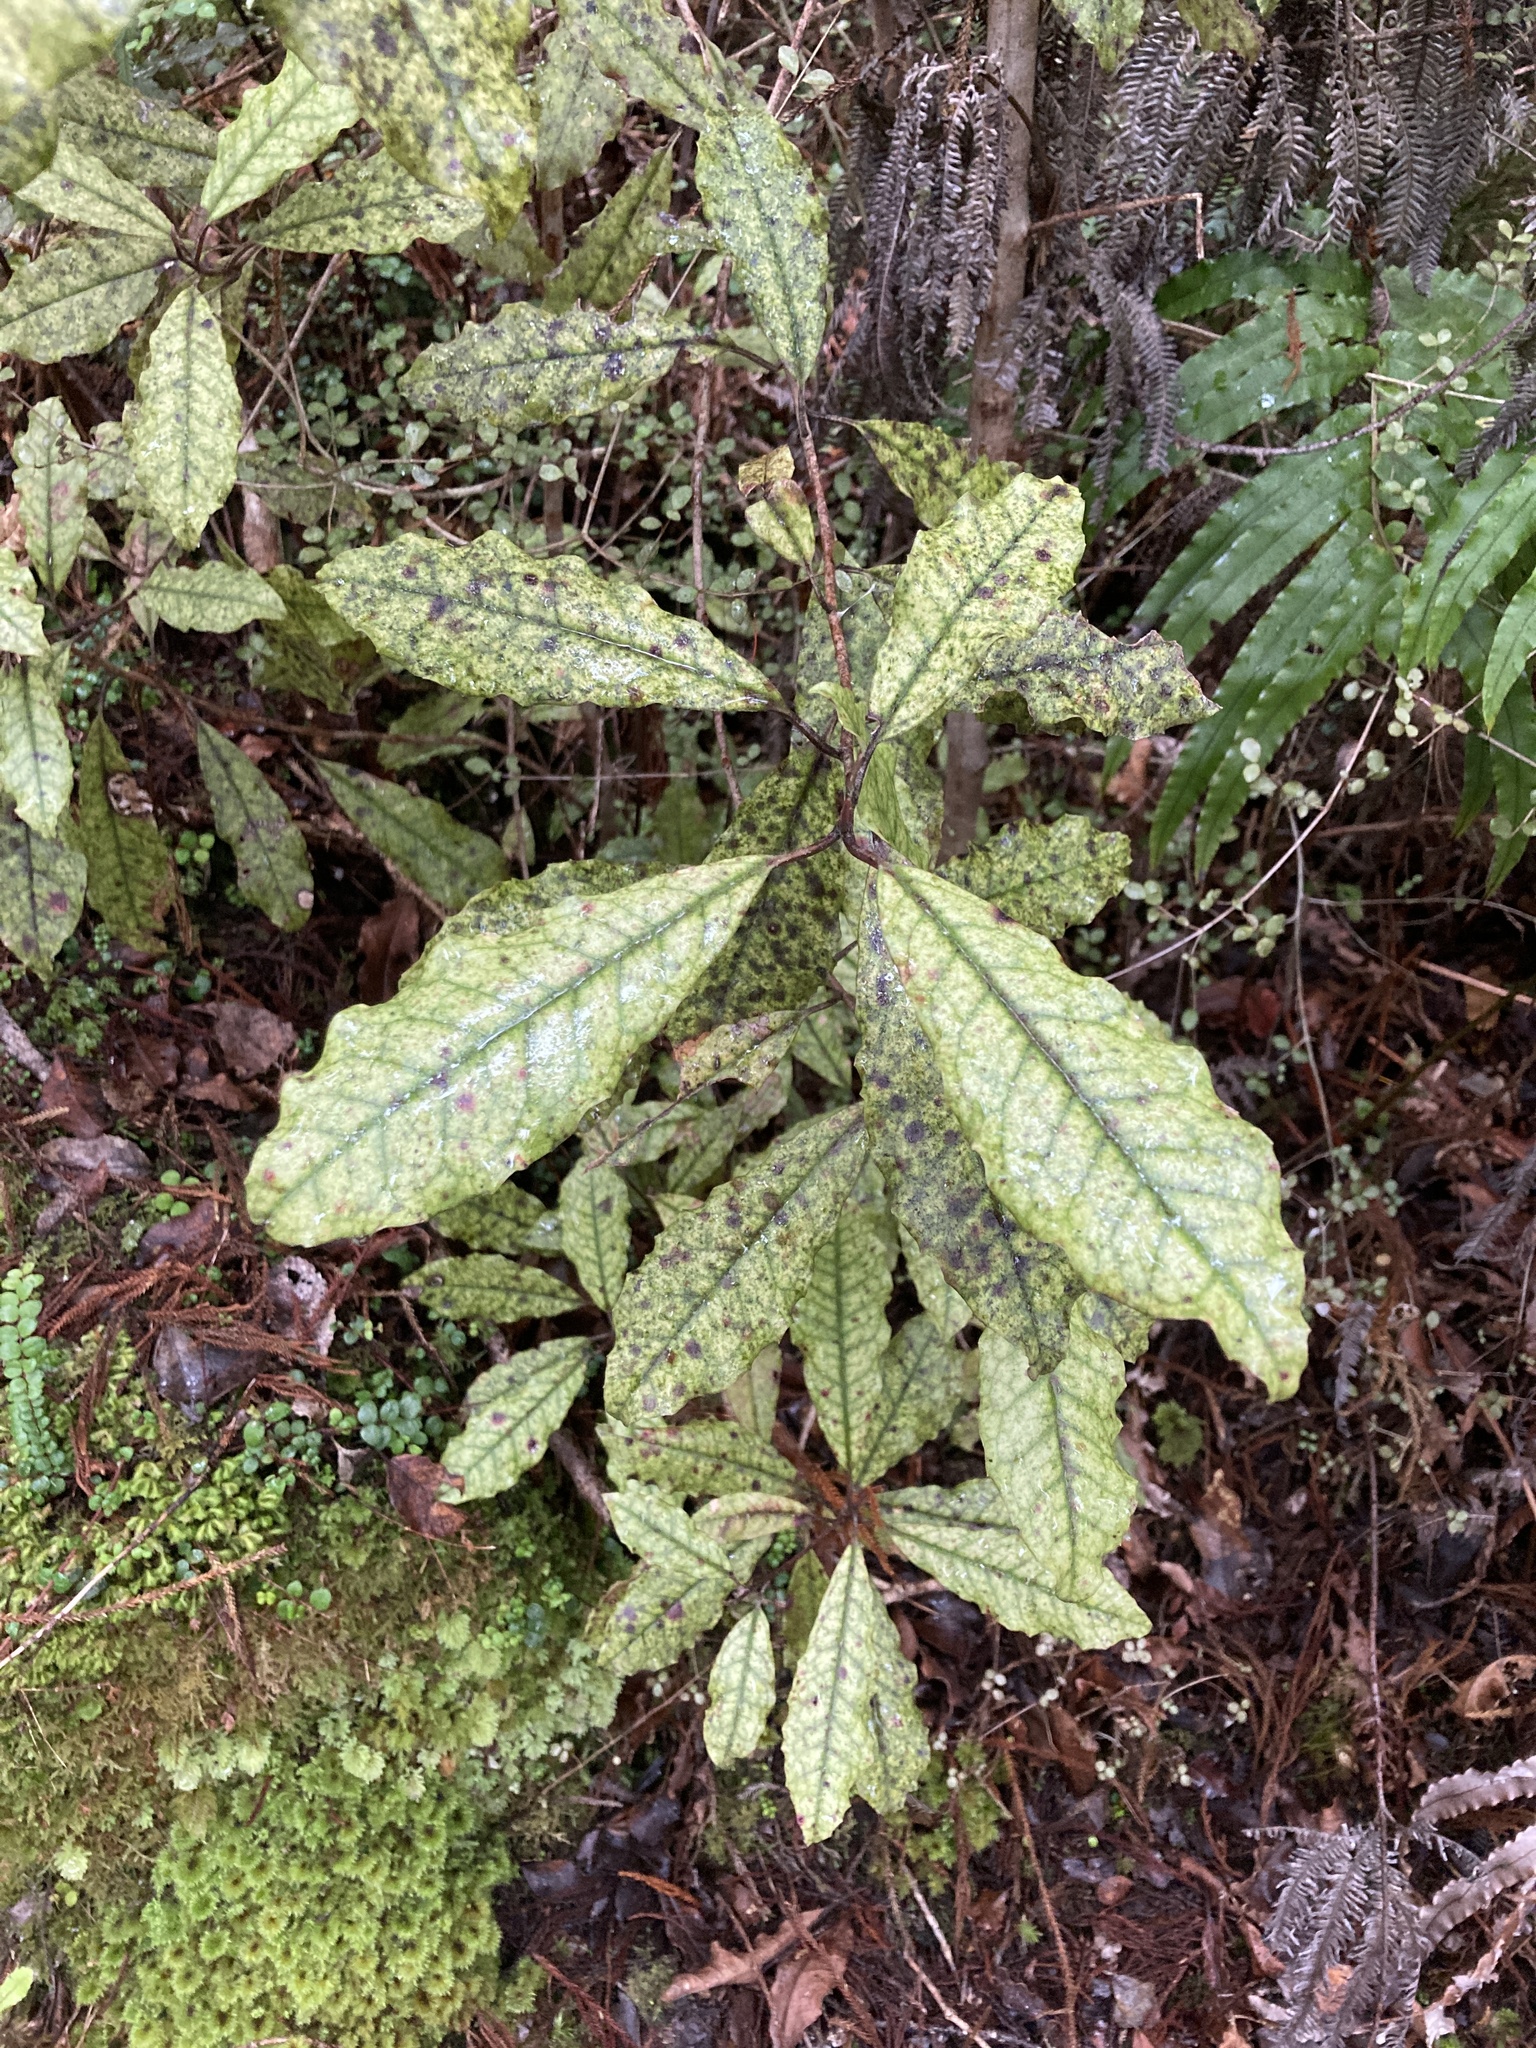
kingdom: Plantae
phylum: Tracheophyta
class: Magnoliopsida
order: Paracryphiales
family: Paracryphiaceae
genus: Quintinia
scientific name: Quintinia serrata
